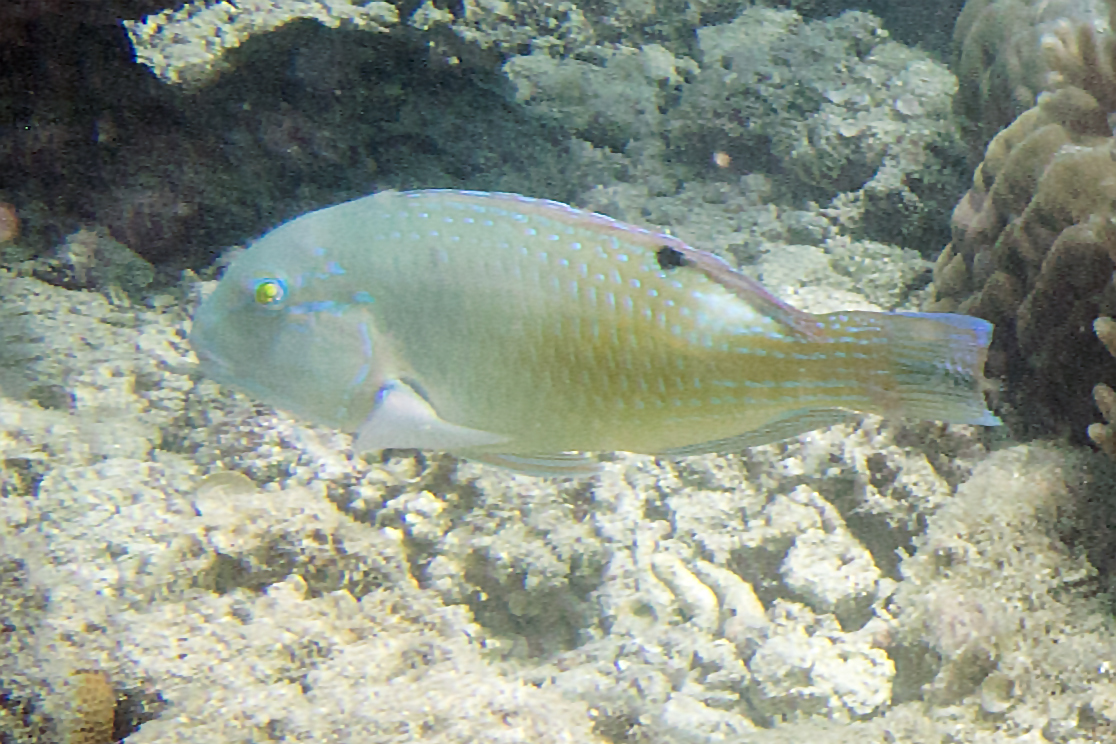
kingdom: Animalia
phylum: Chordata
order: Perciformes
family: Labridae
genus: Choerodon
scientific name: Choerodon schoenleinii
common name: Blackspot tuskfish
